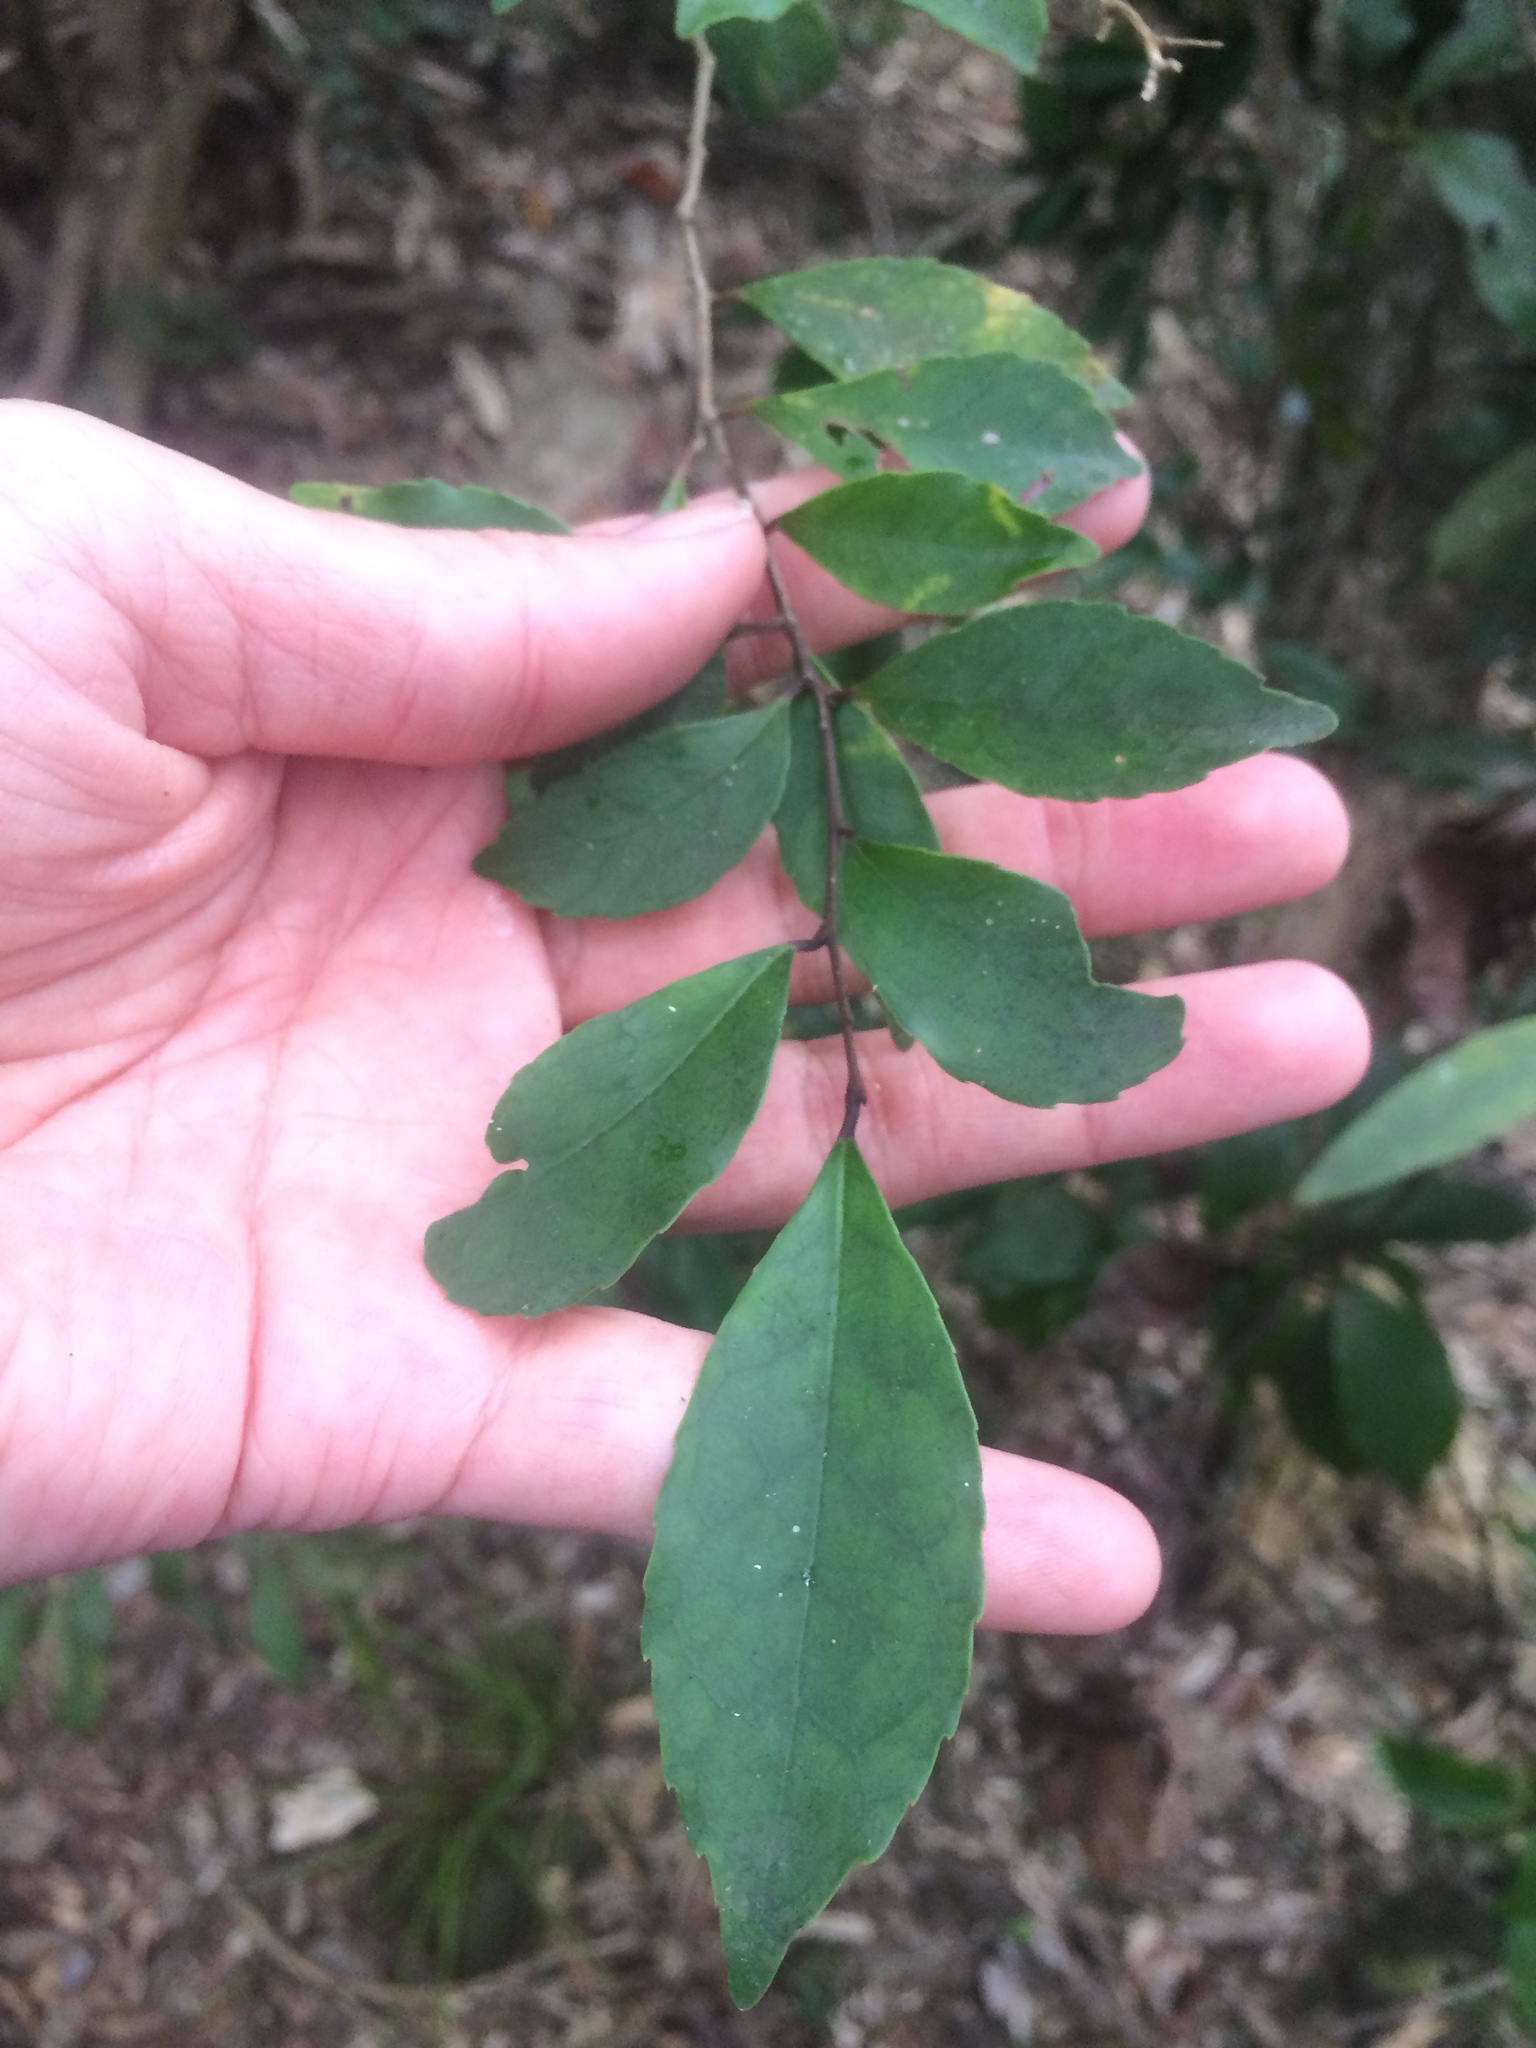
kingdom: Plantae
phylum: Tracheophyta
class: Magnoliopsida
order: Aquifoliales
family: Aquifoliaceae
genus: Ilex
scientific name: Ilex uraiensis
